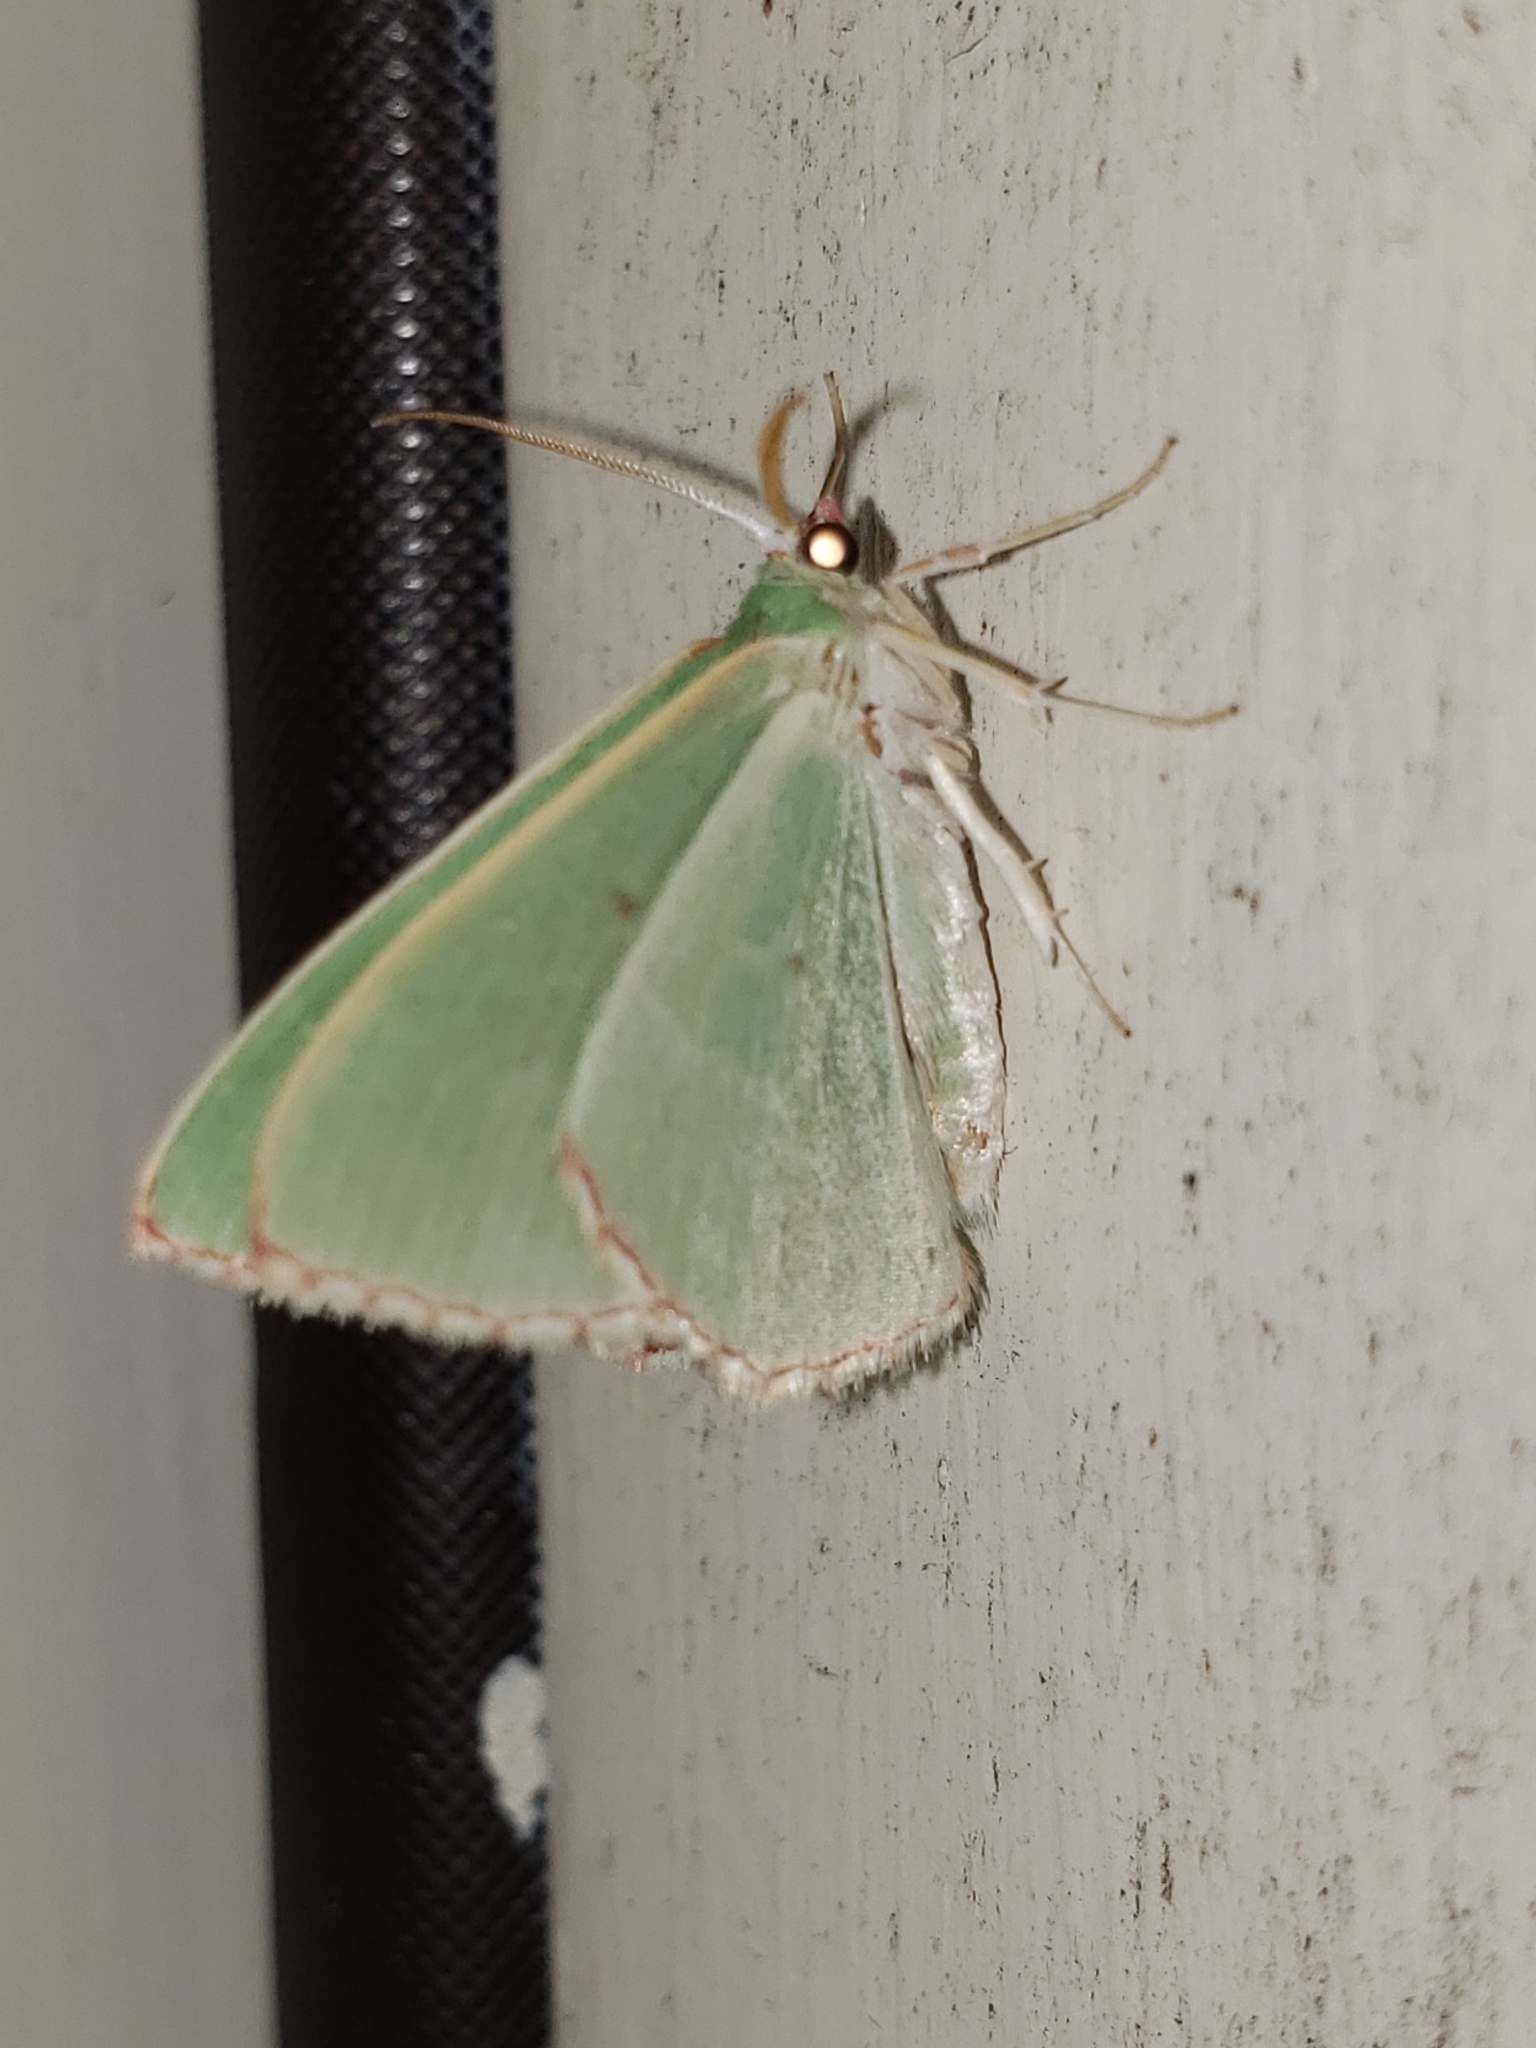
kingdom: Animalia
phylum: Arthropoda
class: Insecta
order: Lepidoptera
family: Geometridae
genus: Nemoria
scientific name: Nemoria lixaria
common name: Red-bordered emerald
